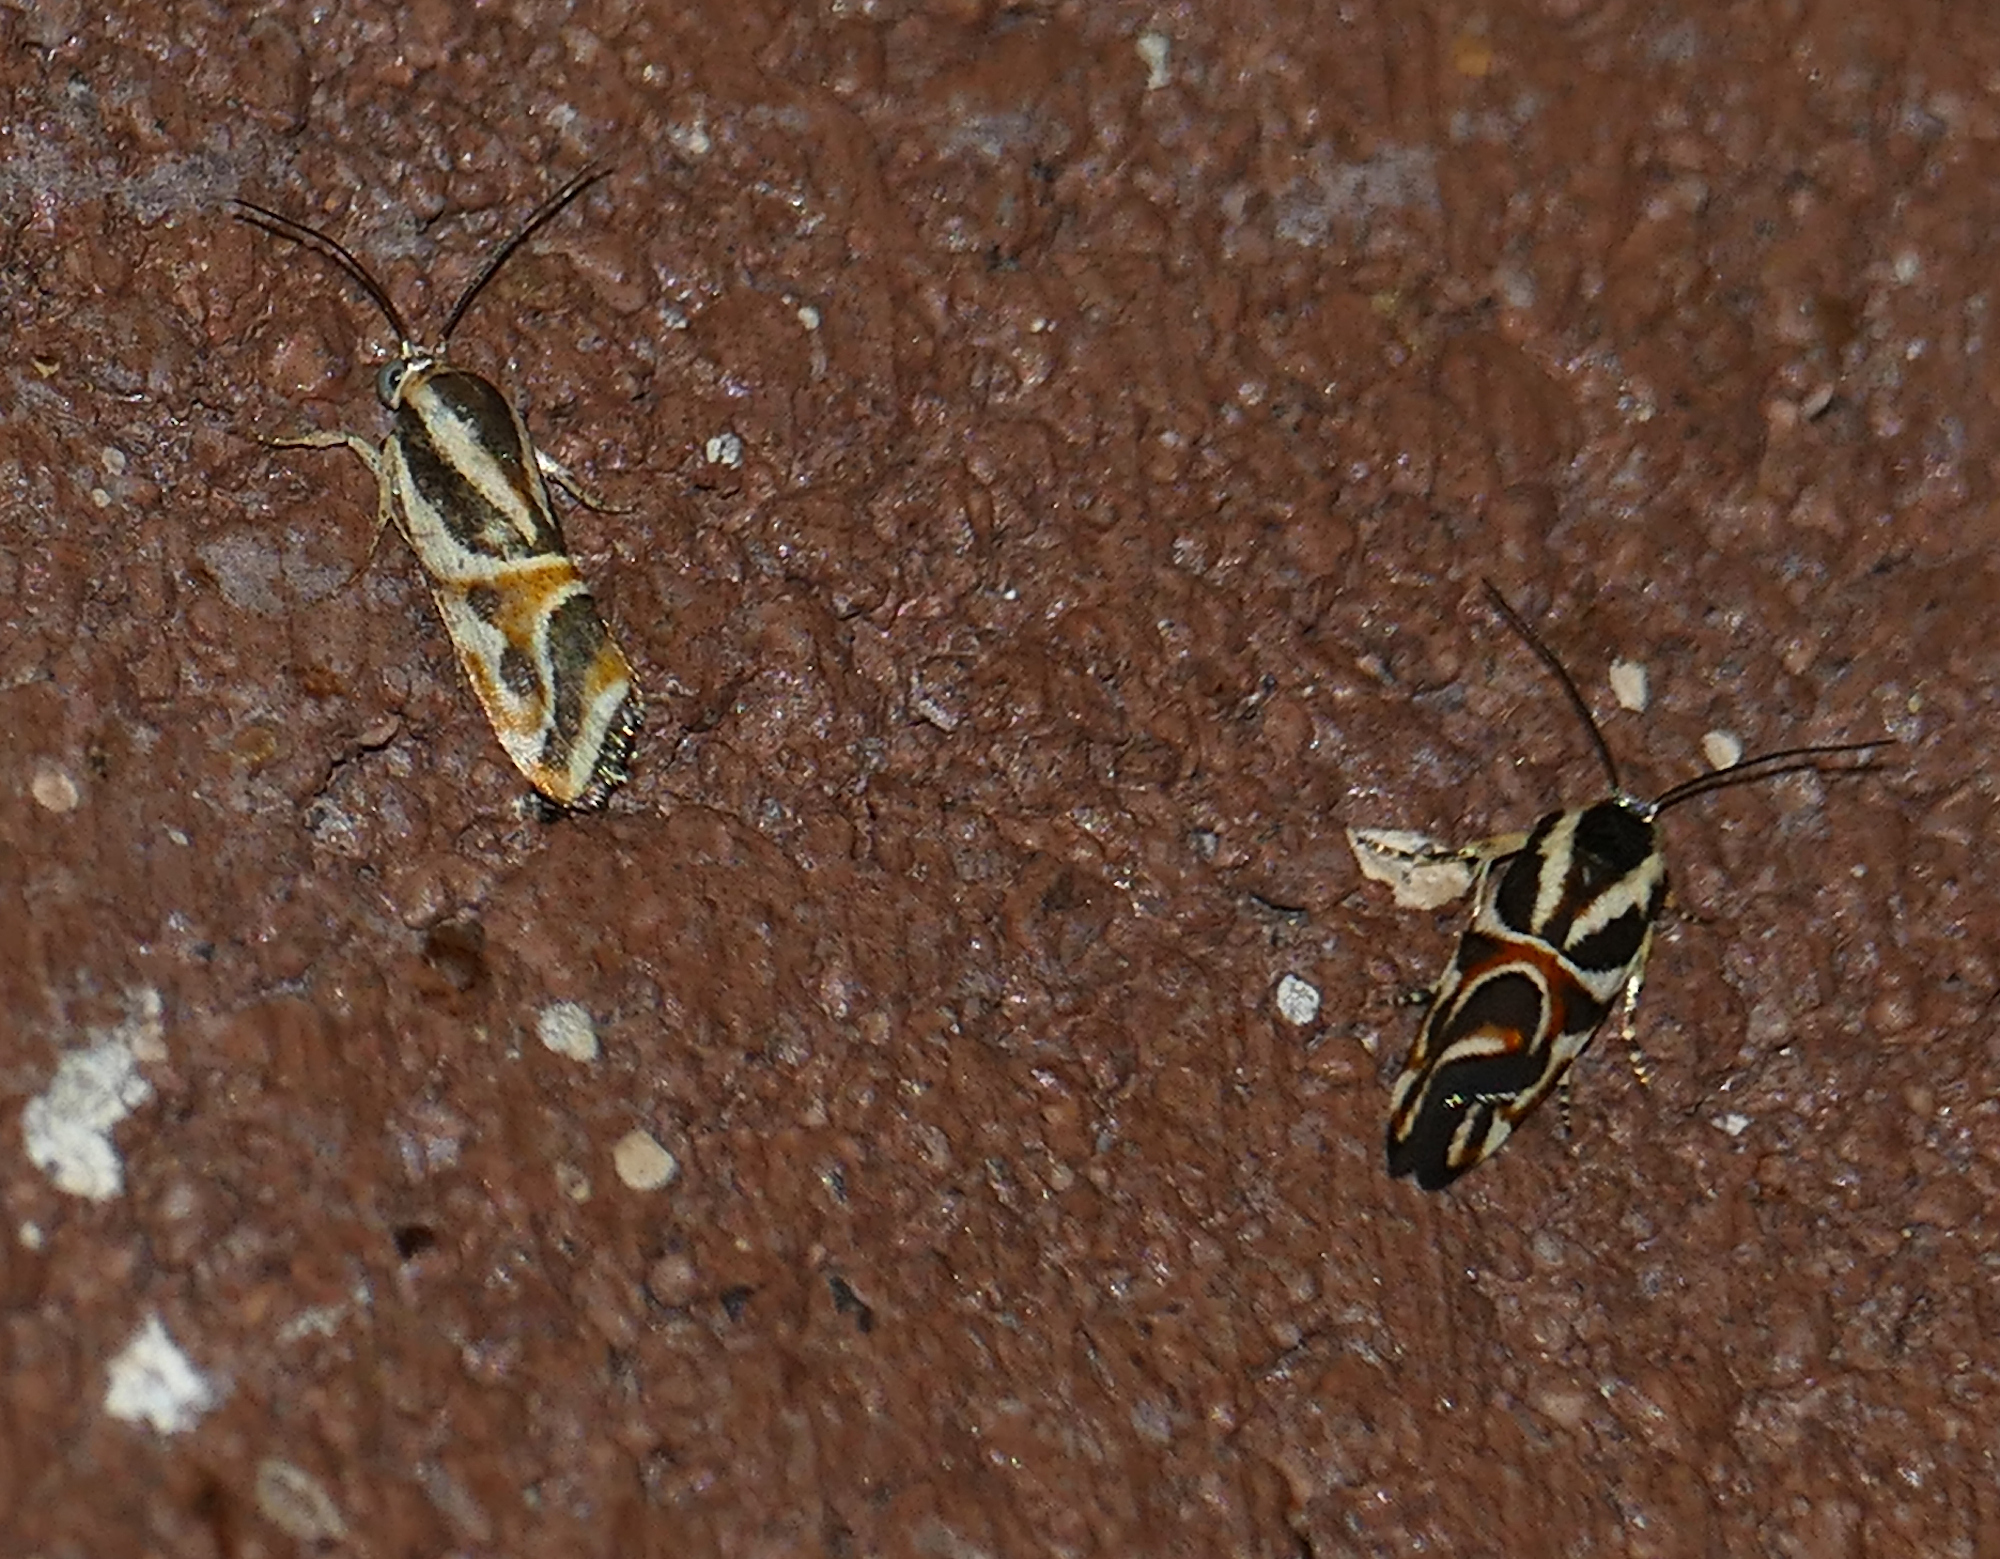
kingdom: Animalia
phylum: Arthropoda
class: Insecta
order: Lepidoptera
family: Noctuidae
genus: Spragueia
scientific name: Spragueia magnifica
